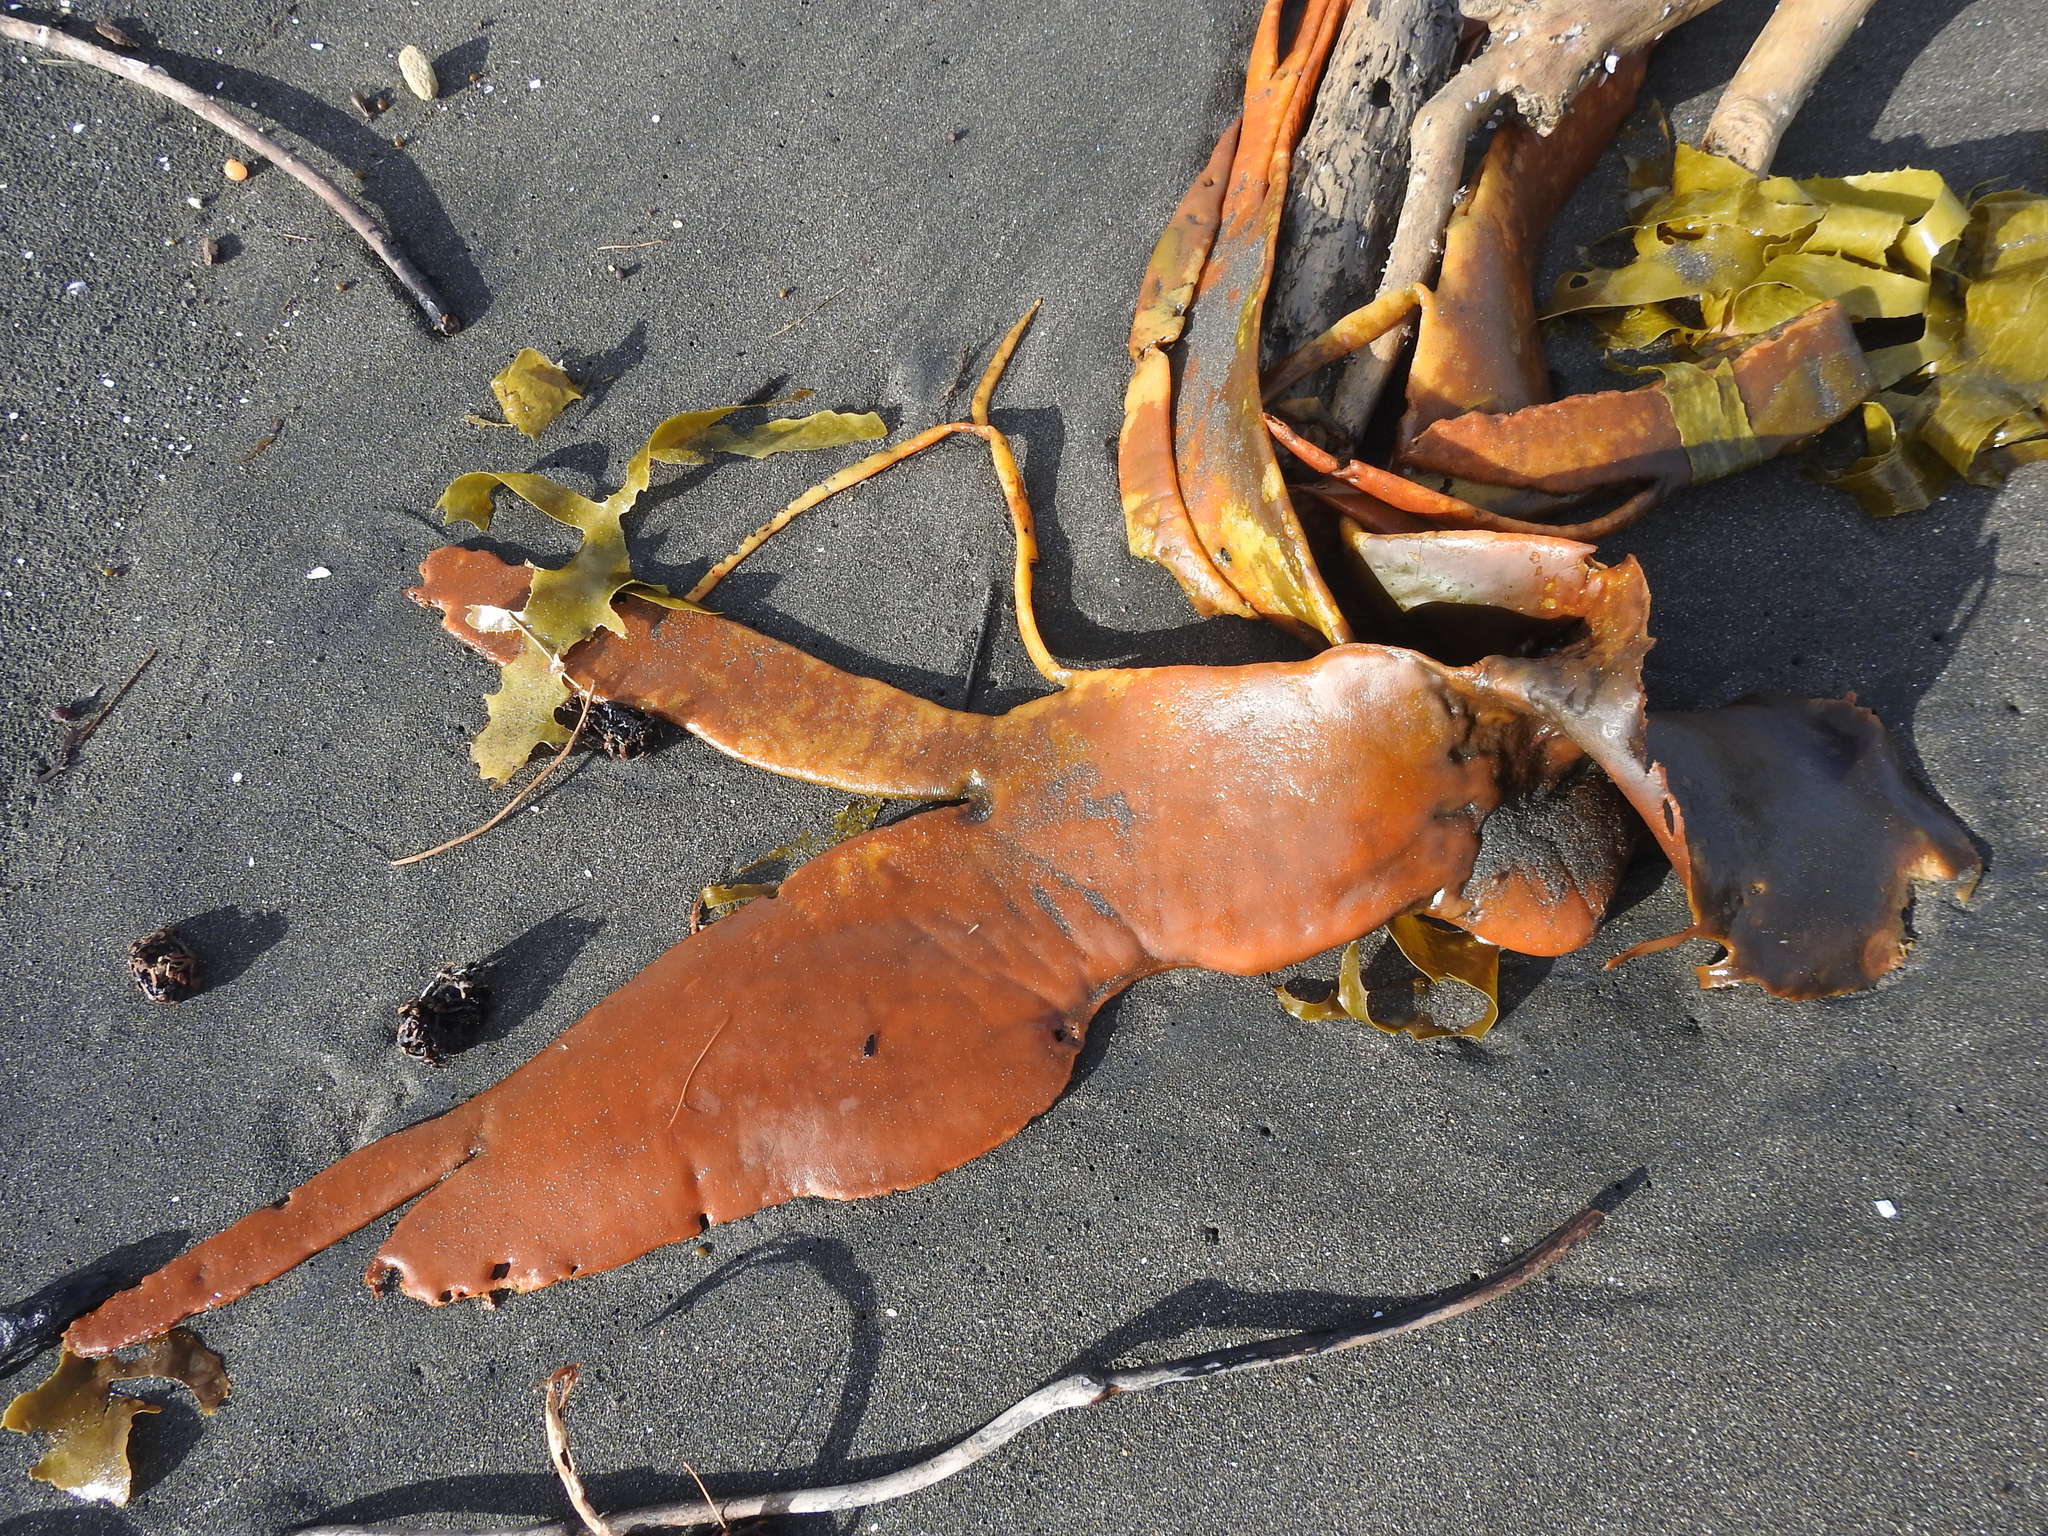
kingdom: Chromista
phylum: Ochrophyta
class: Phaeophyceae
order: Fucales
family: Durvillaeaceae
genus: Durvillaea
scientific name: Durvillaea antarctica
